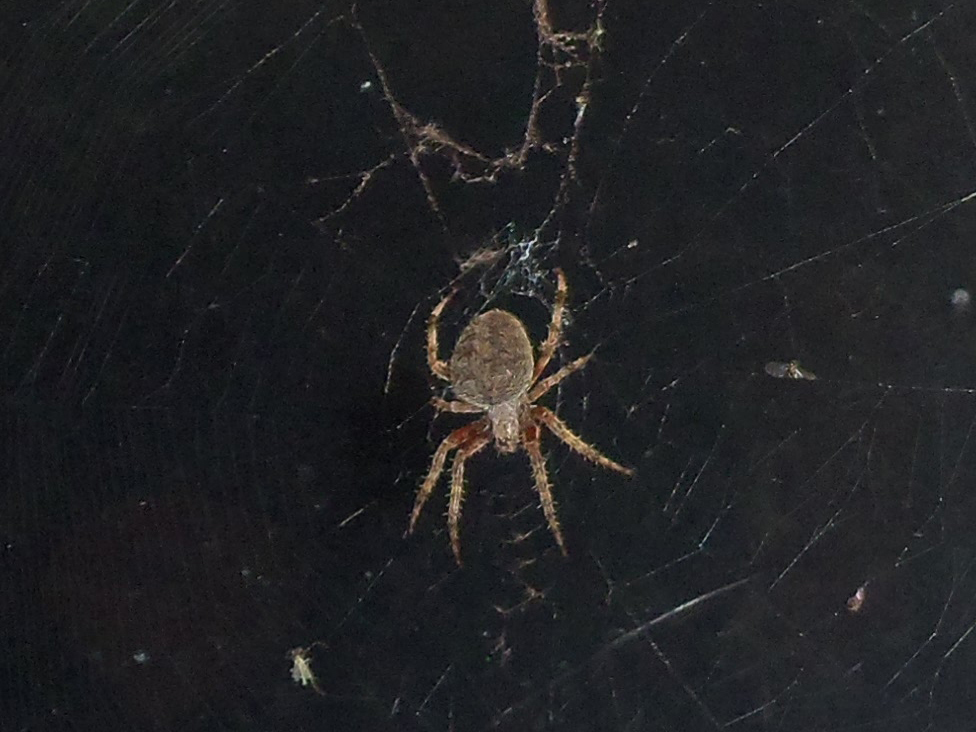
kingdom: Animalia
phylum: Arthropoda
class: Arachnida
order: Araneae
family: Araneidae
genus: Neoscona
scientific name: Neoscona crucifera
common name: Spotted orbweaver
